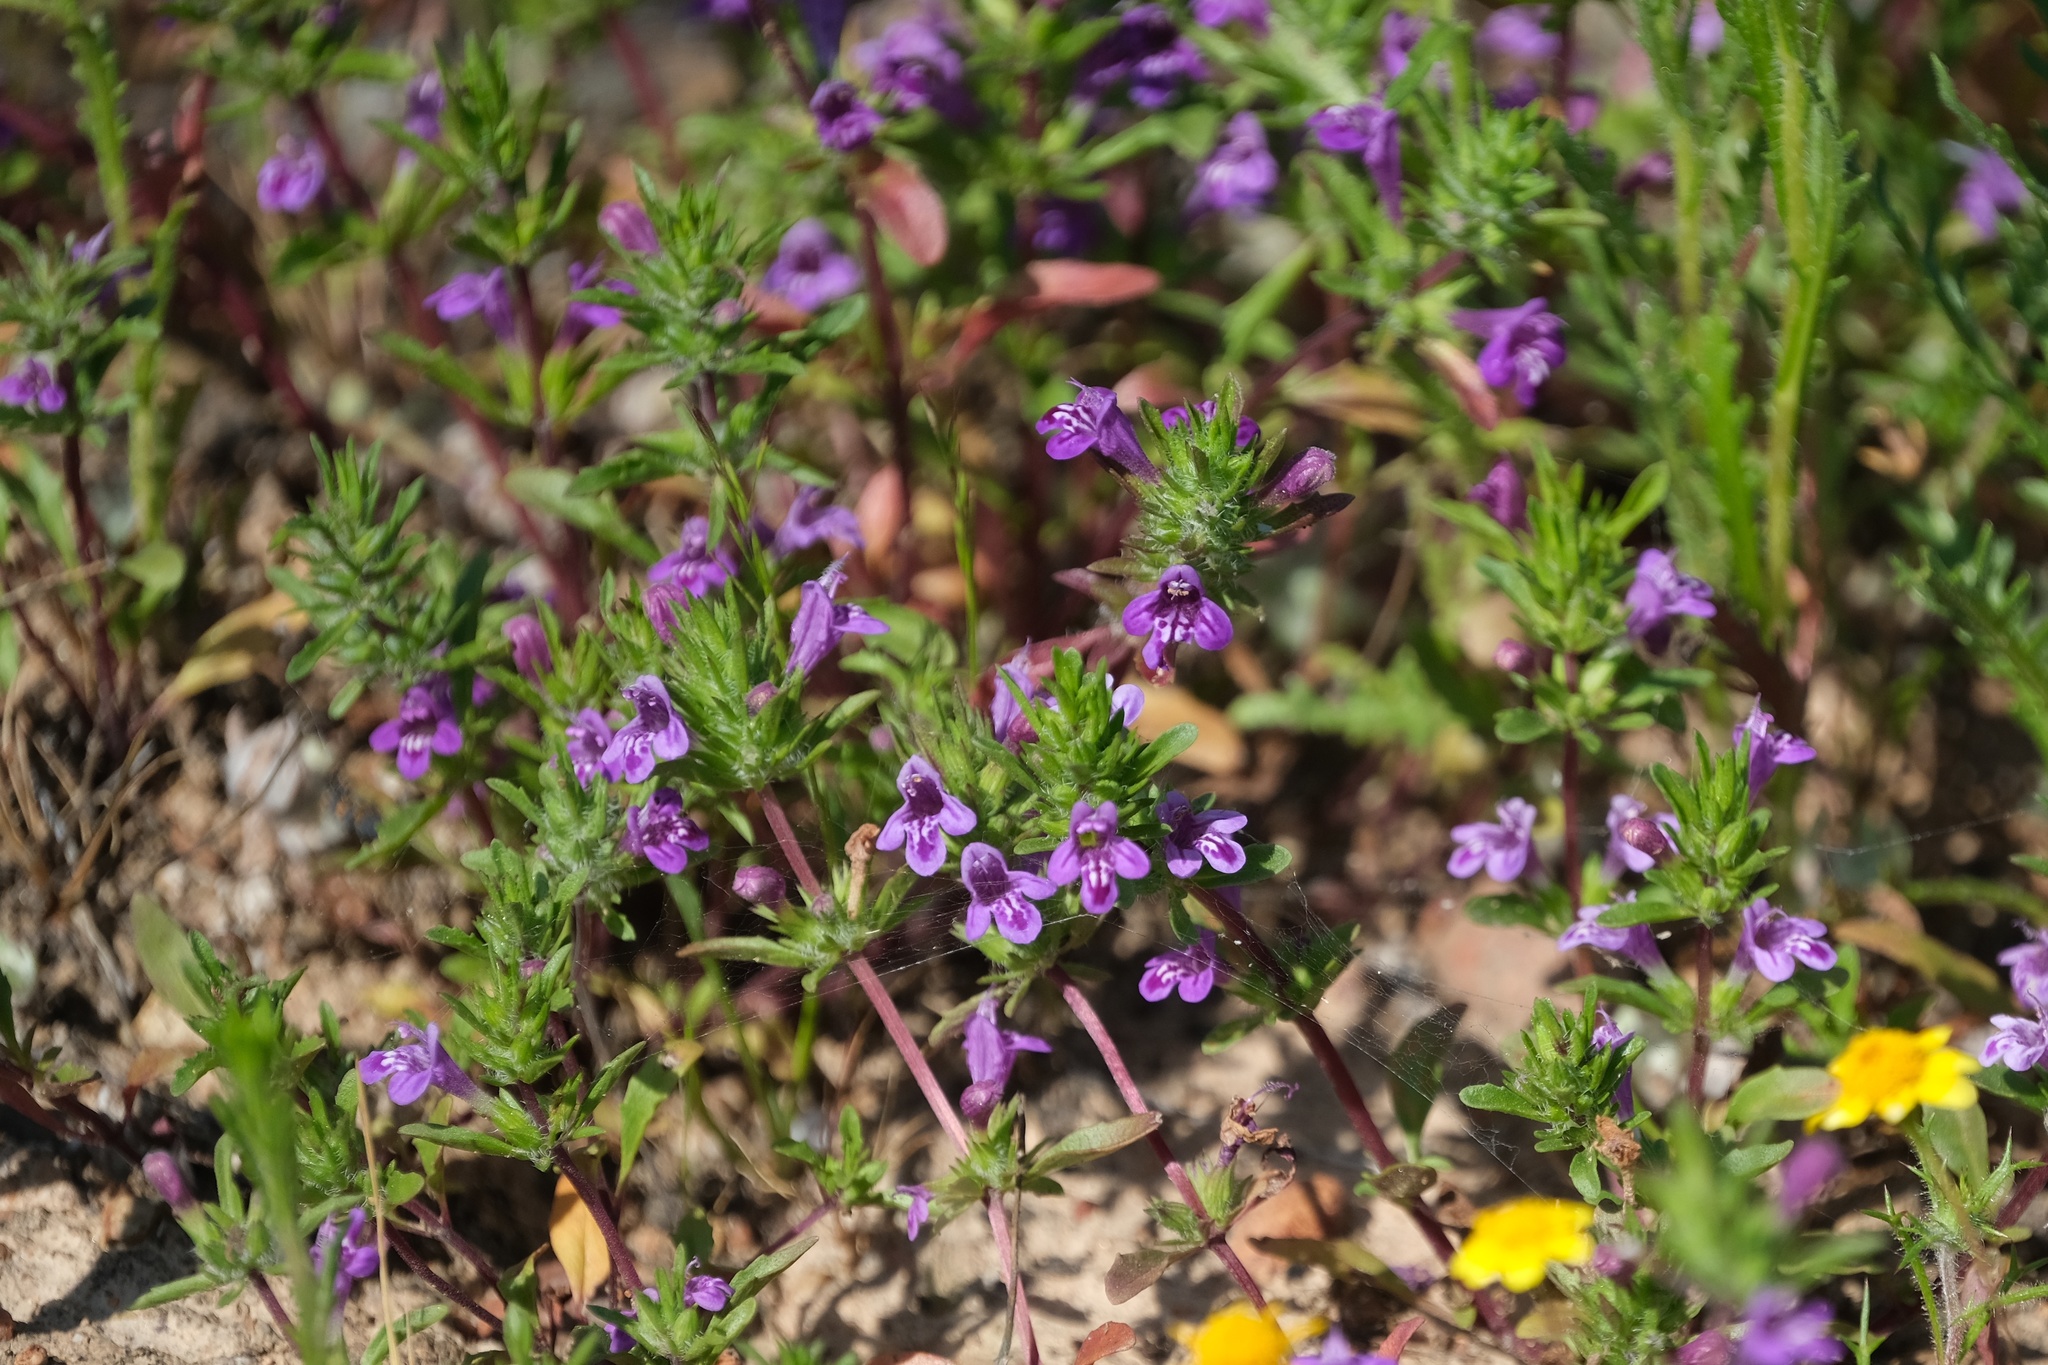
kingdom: Plantae
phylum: Tracheophyta
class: Magnoliopsida
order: Lamiales
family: Lamiaceae
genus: Pogogyne
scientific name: Pogogyne nudiuscula
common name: Otay mesa-mint
